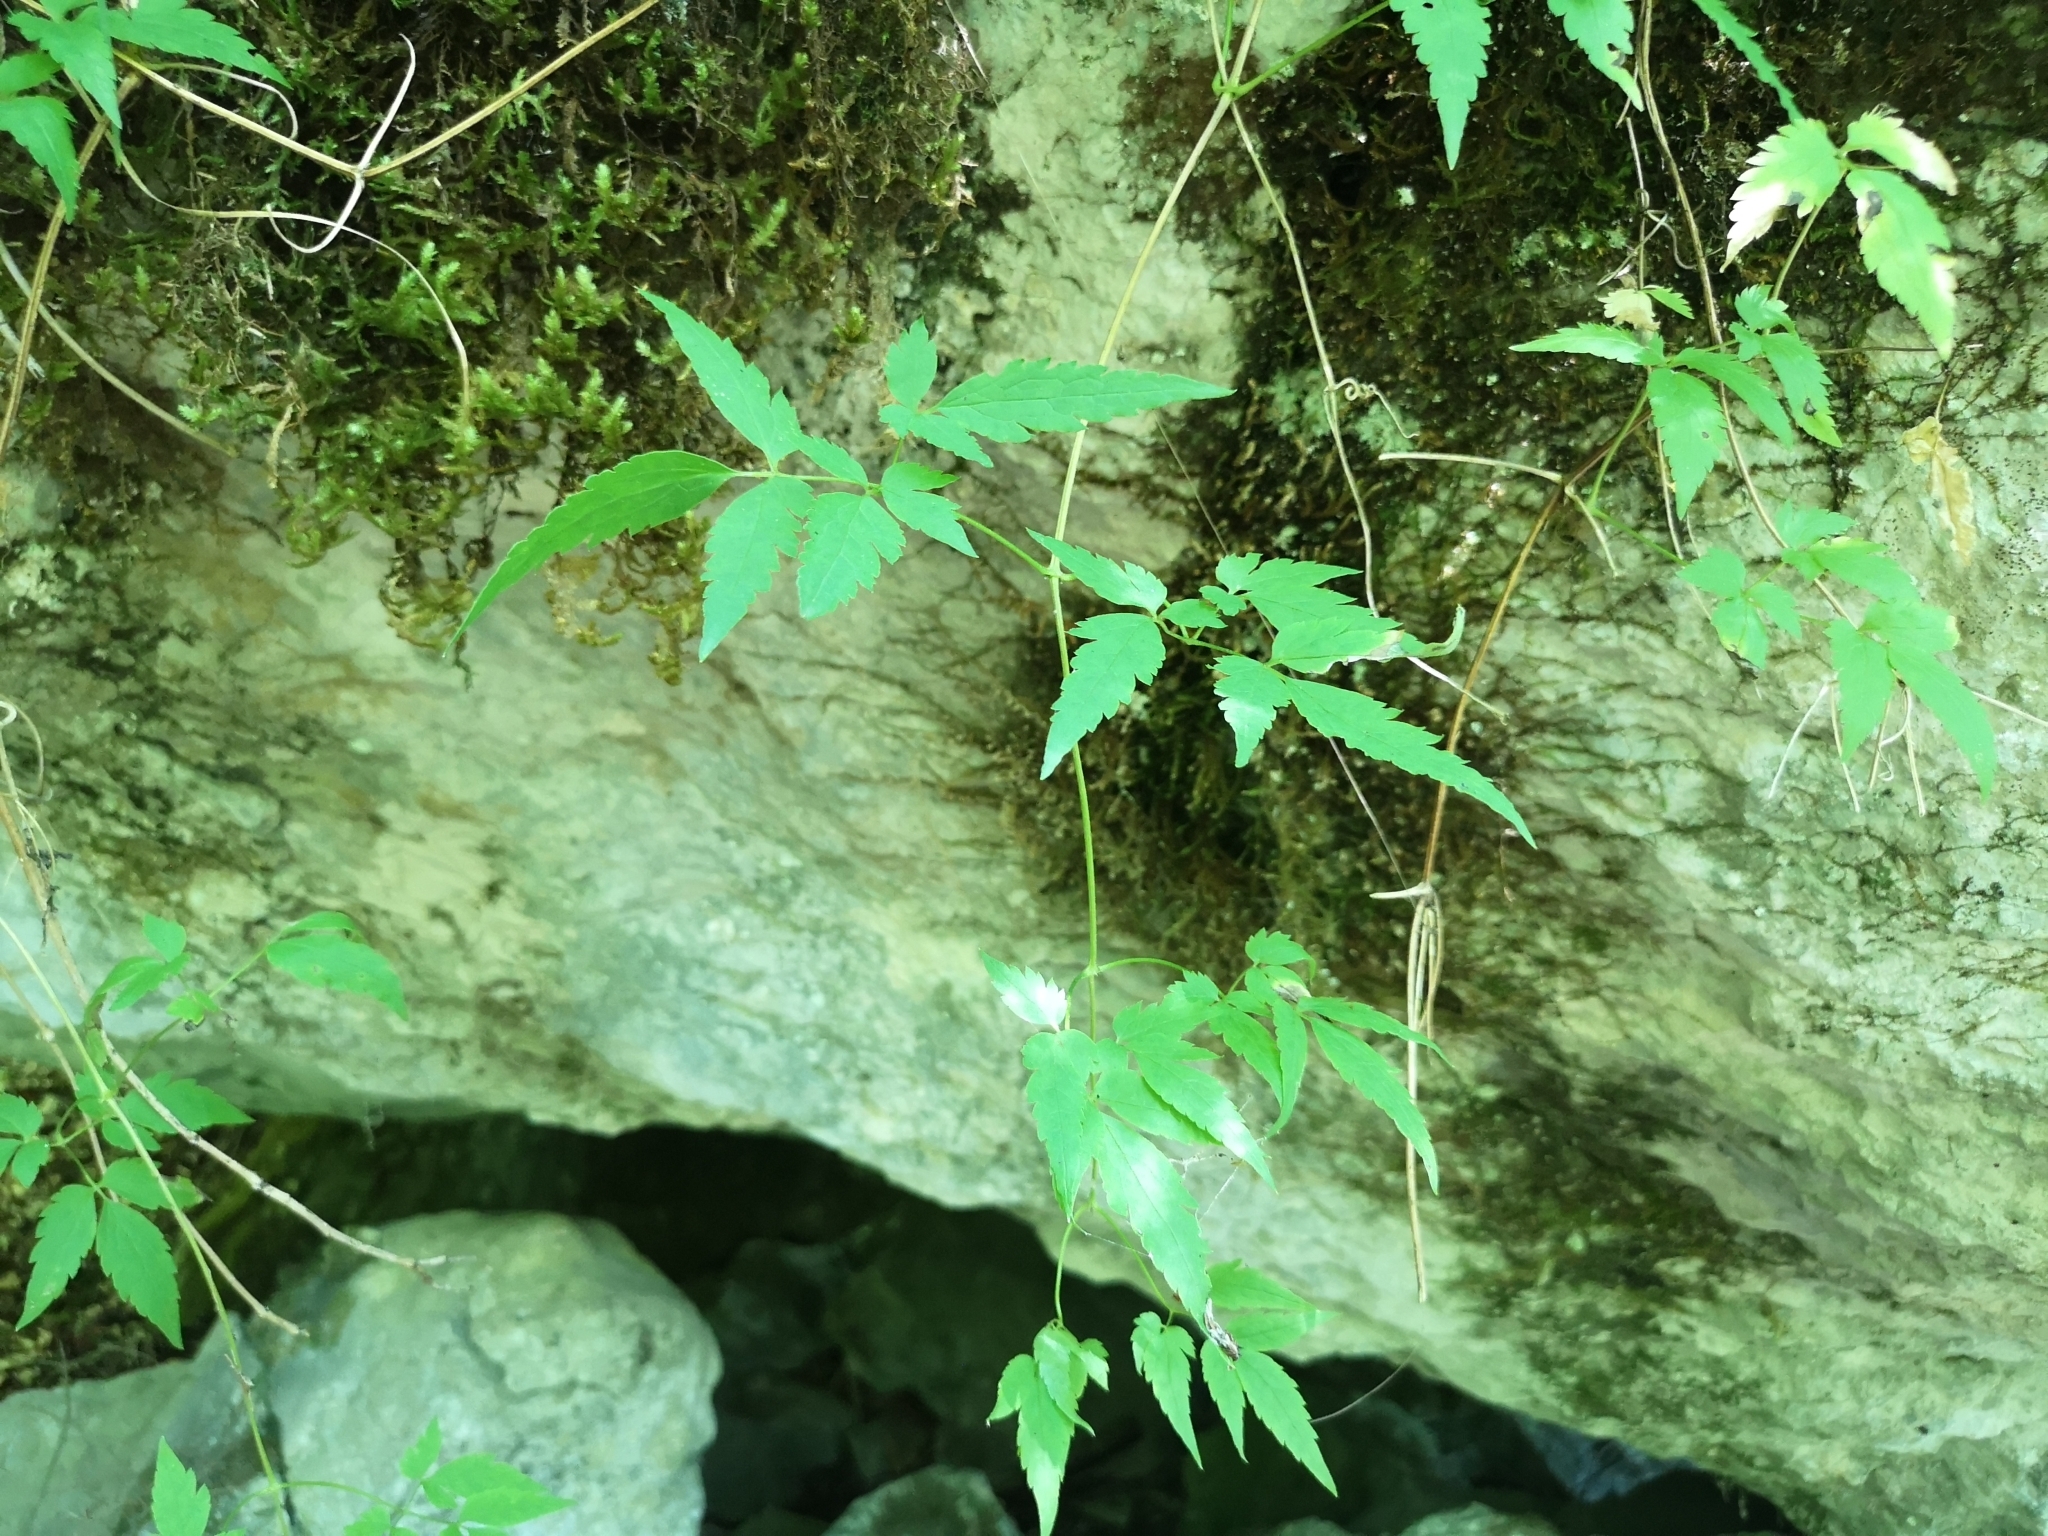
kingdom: Plantae
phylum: Tracheophyta
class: Magnoliopsida
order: Ranunculales
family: Ranunculaceae
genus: Clematis
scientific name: Clematis alpina
